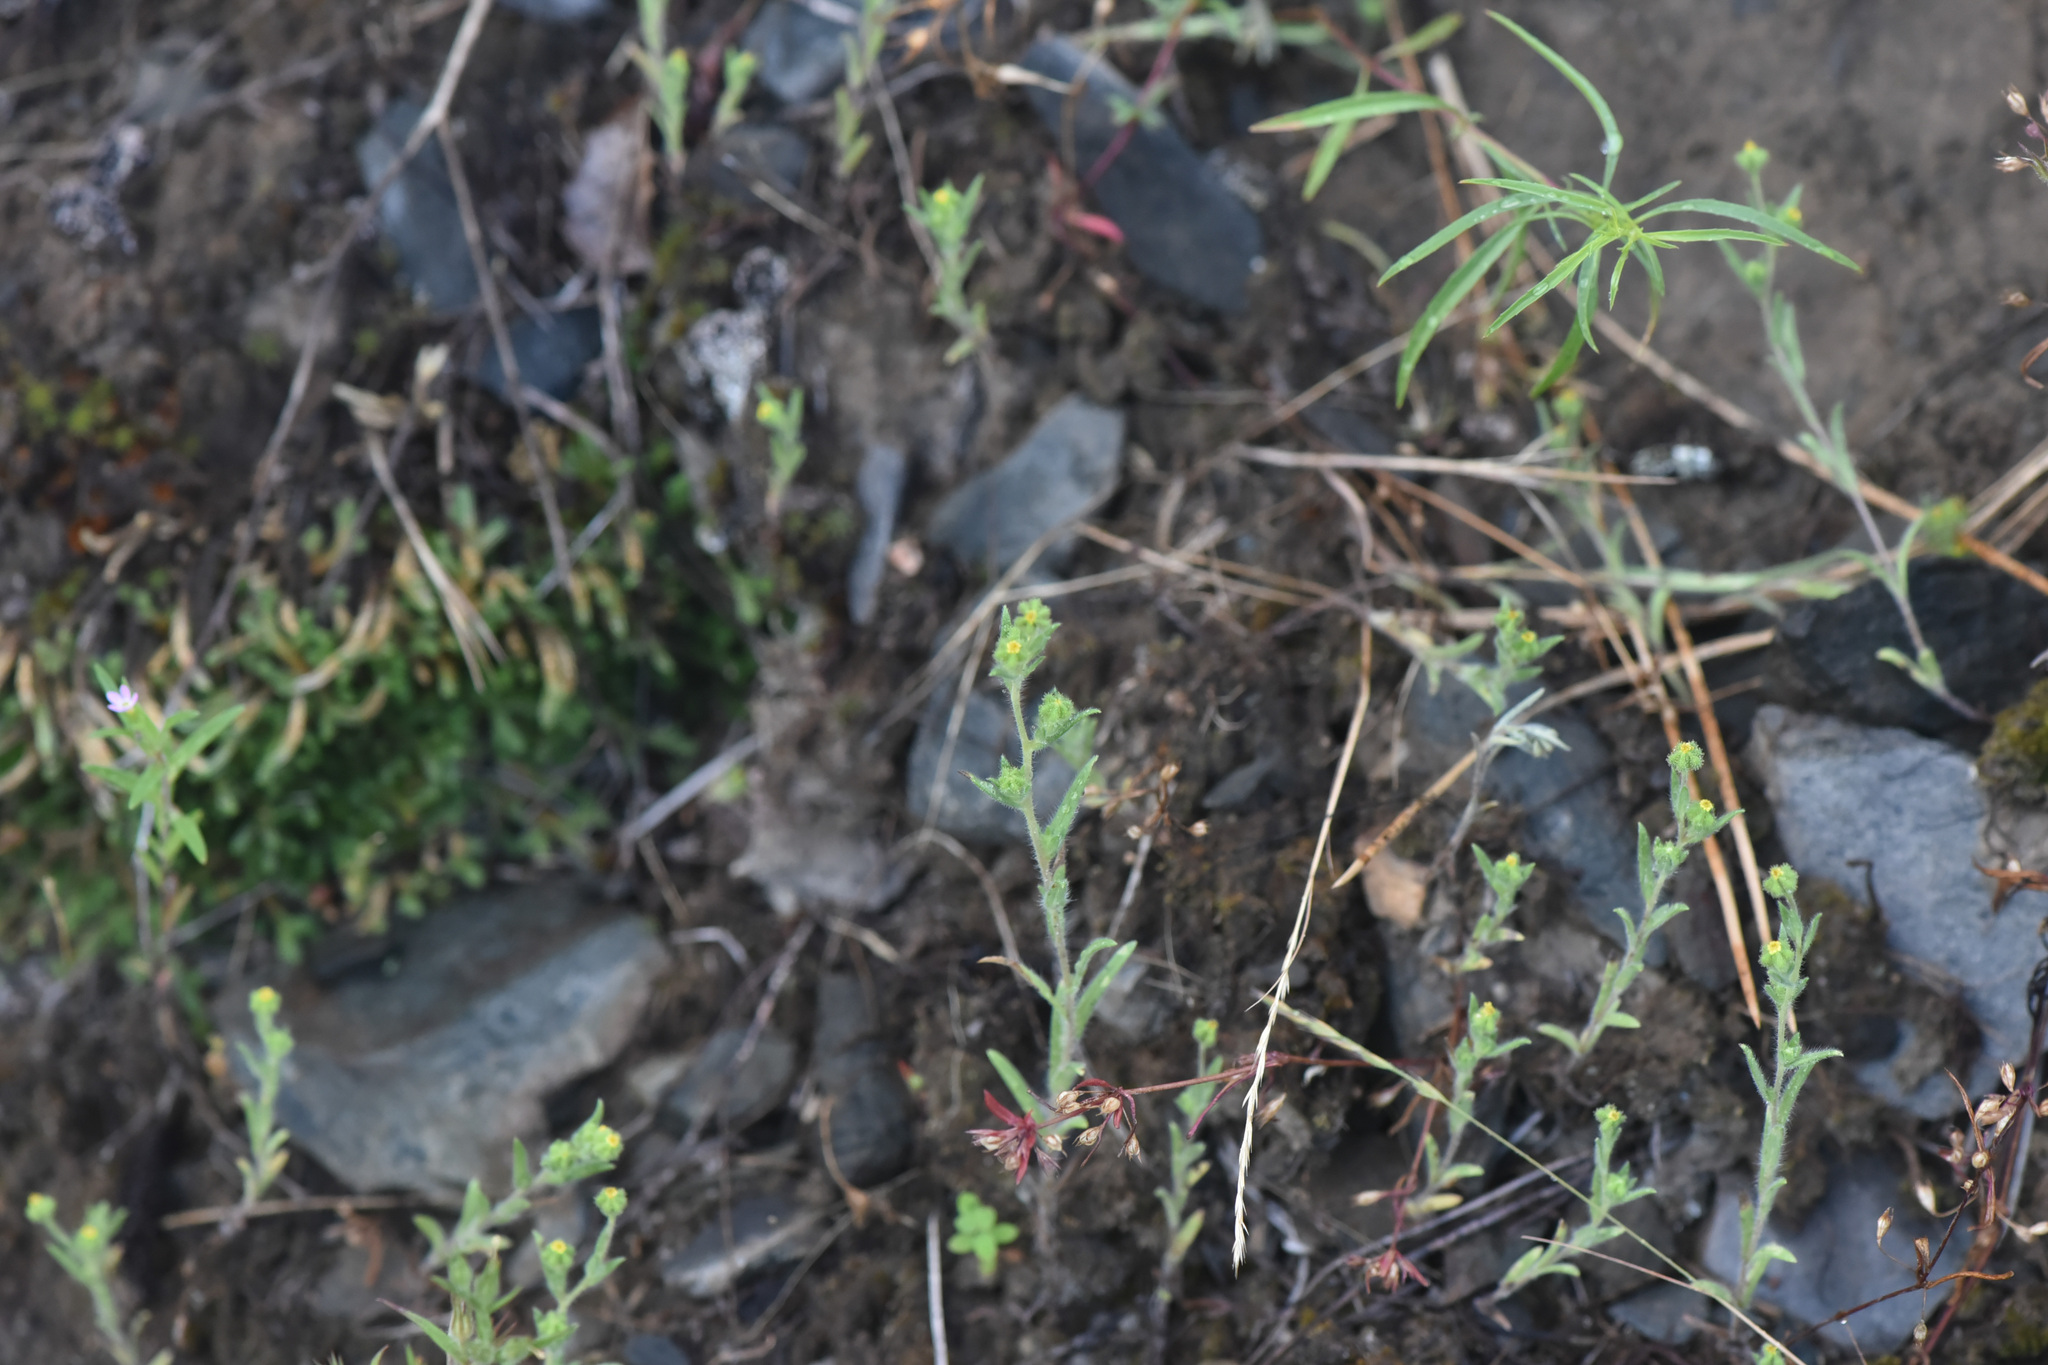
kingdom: Plantae
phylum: Tracheophyta
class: Magnoliopsida
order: Asterales
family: Asteraceae
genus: Madia
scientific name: Madia exigua
